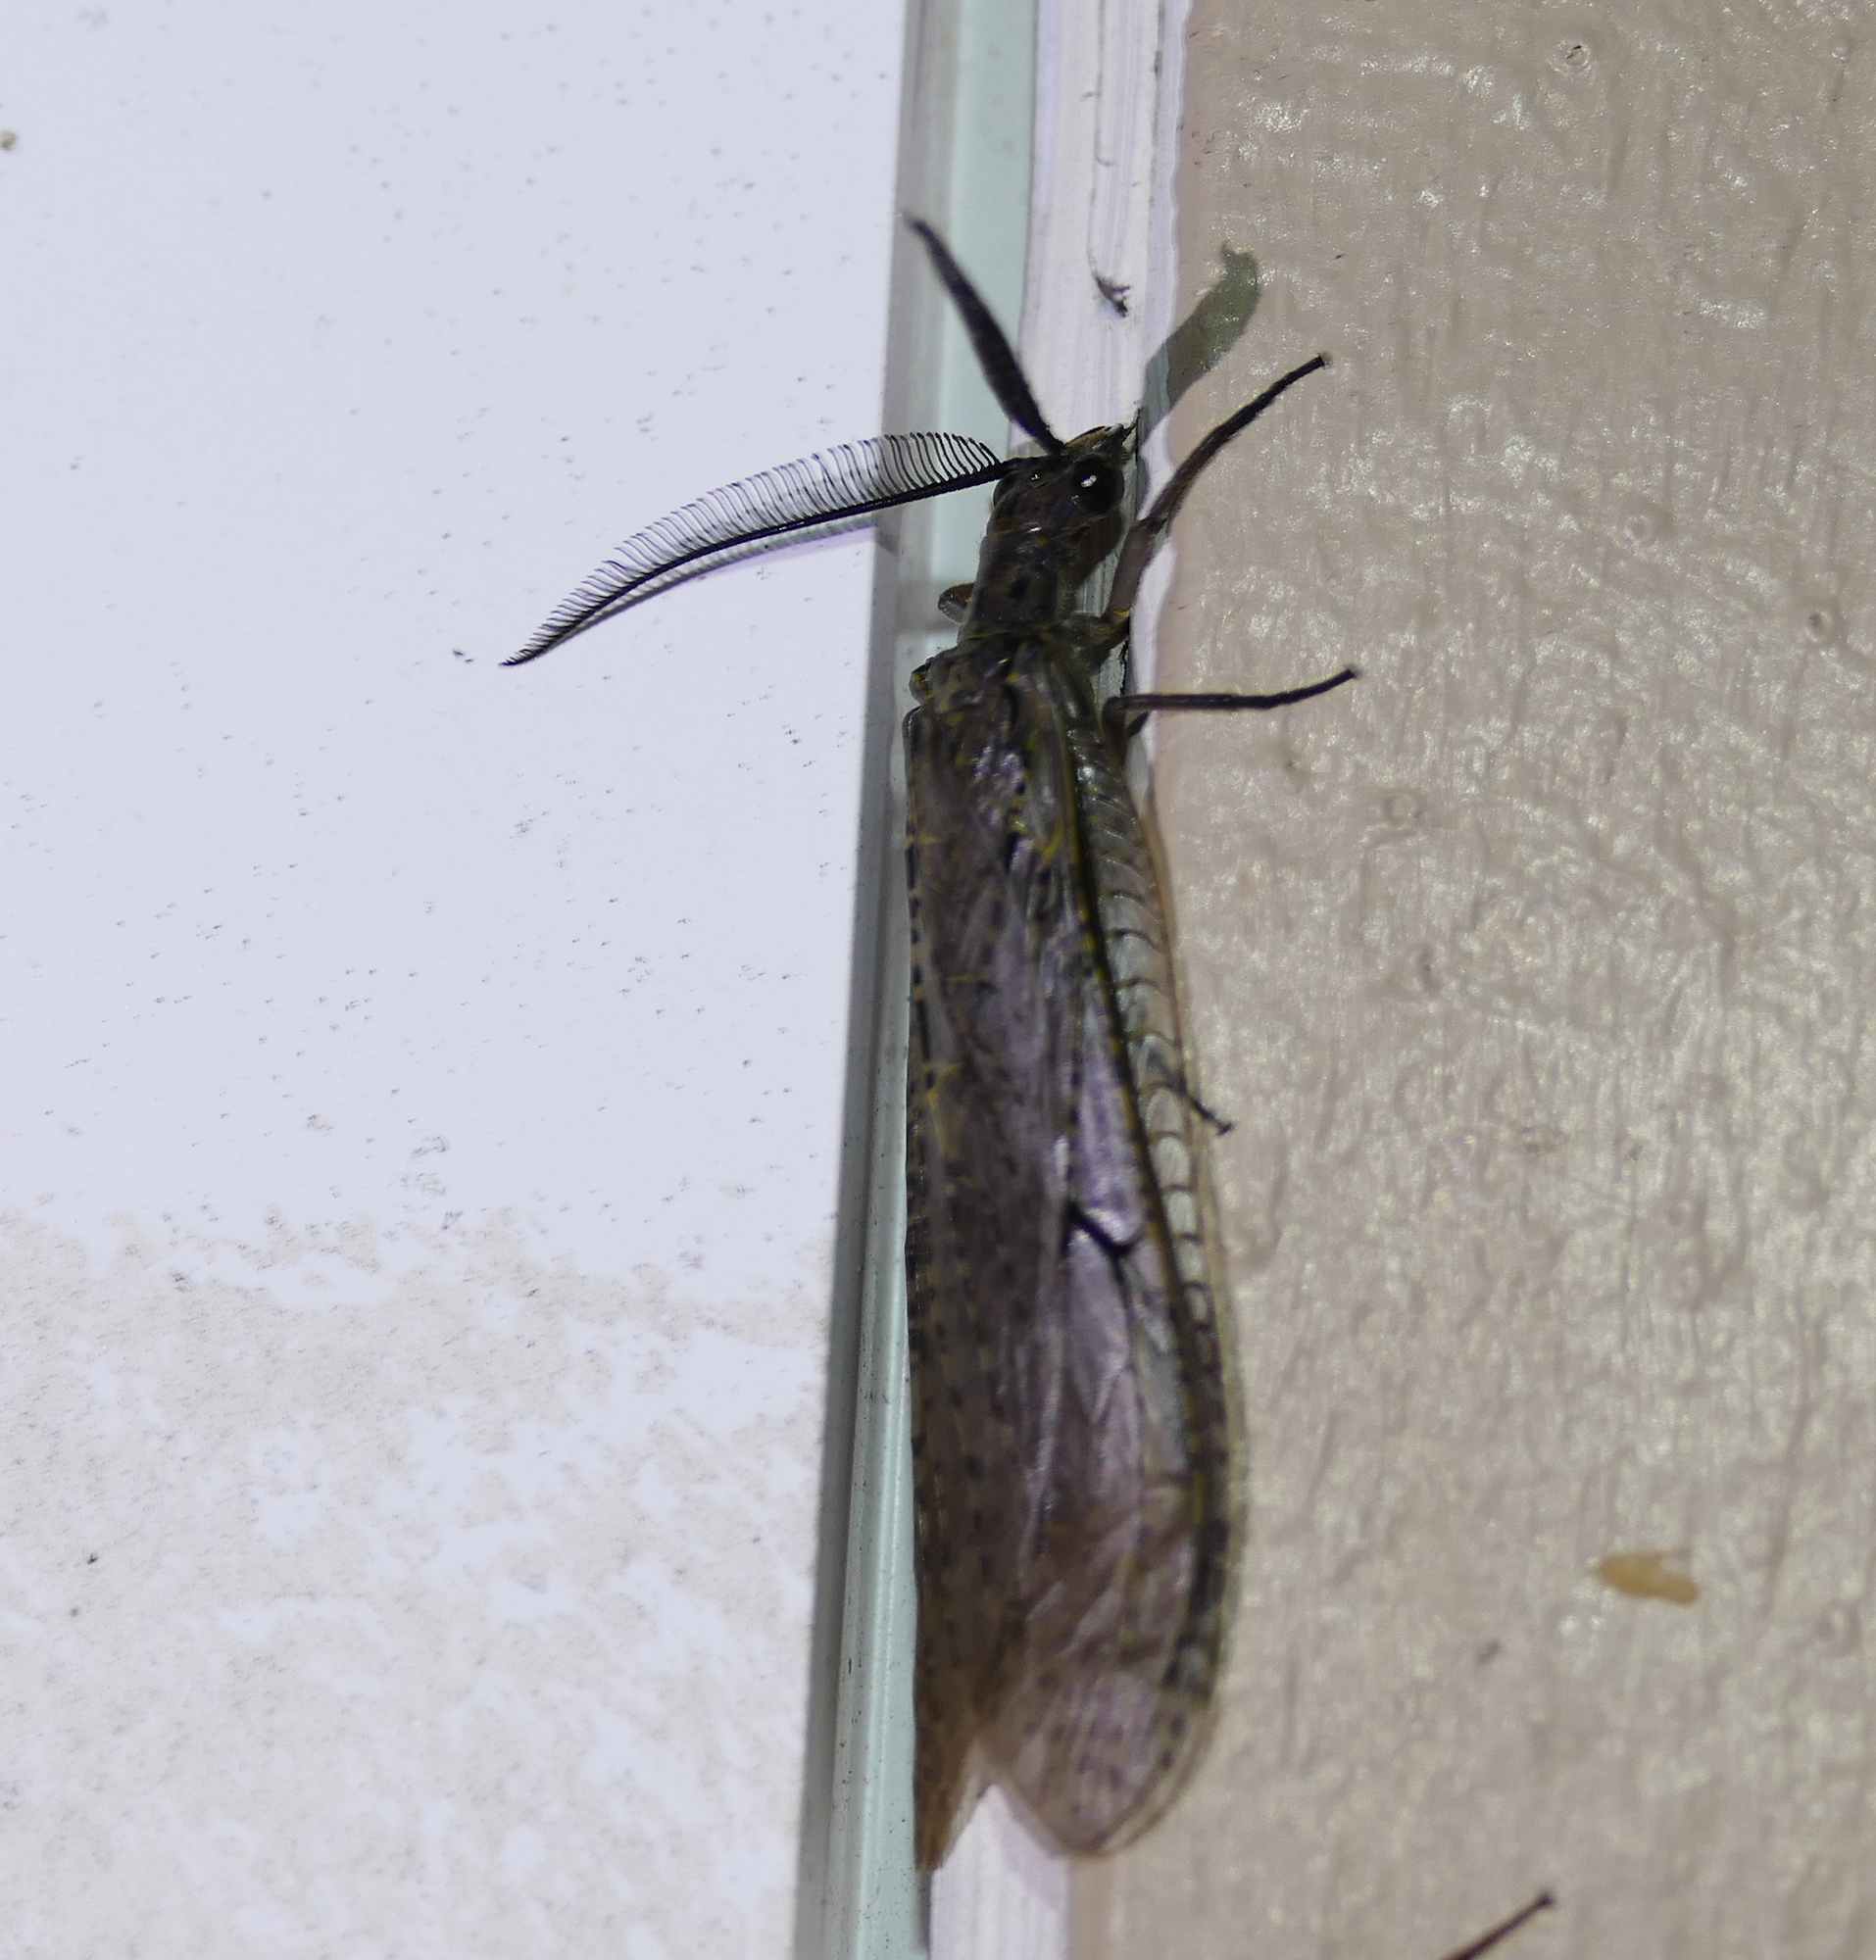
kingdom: Animalia
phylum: Arthropoda
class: Insecta
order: Megaloptera
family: Corydalidae
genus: Chauliodes
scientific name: Chauliodes rastricornis
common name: Spring fishfly
